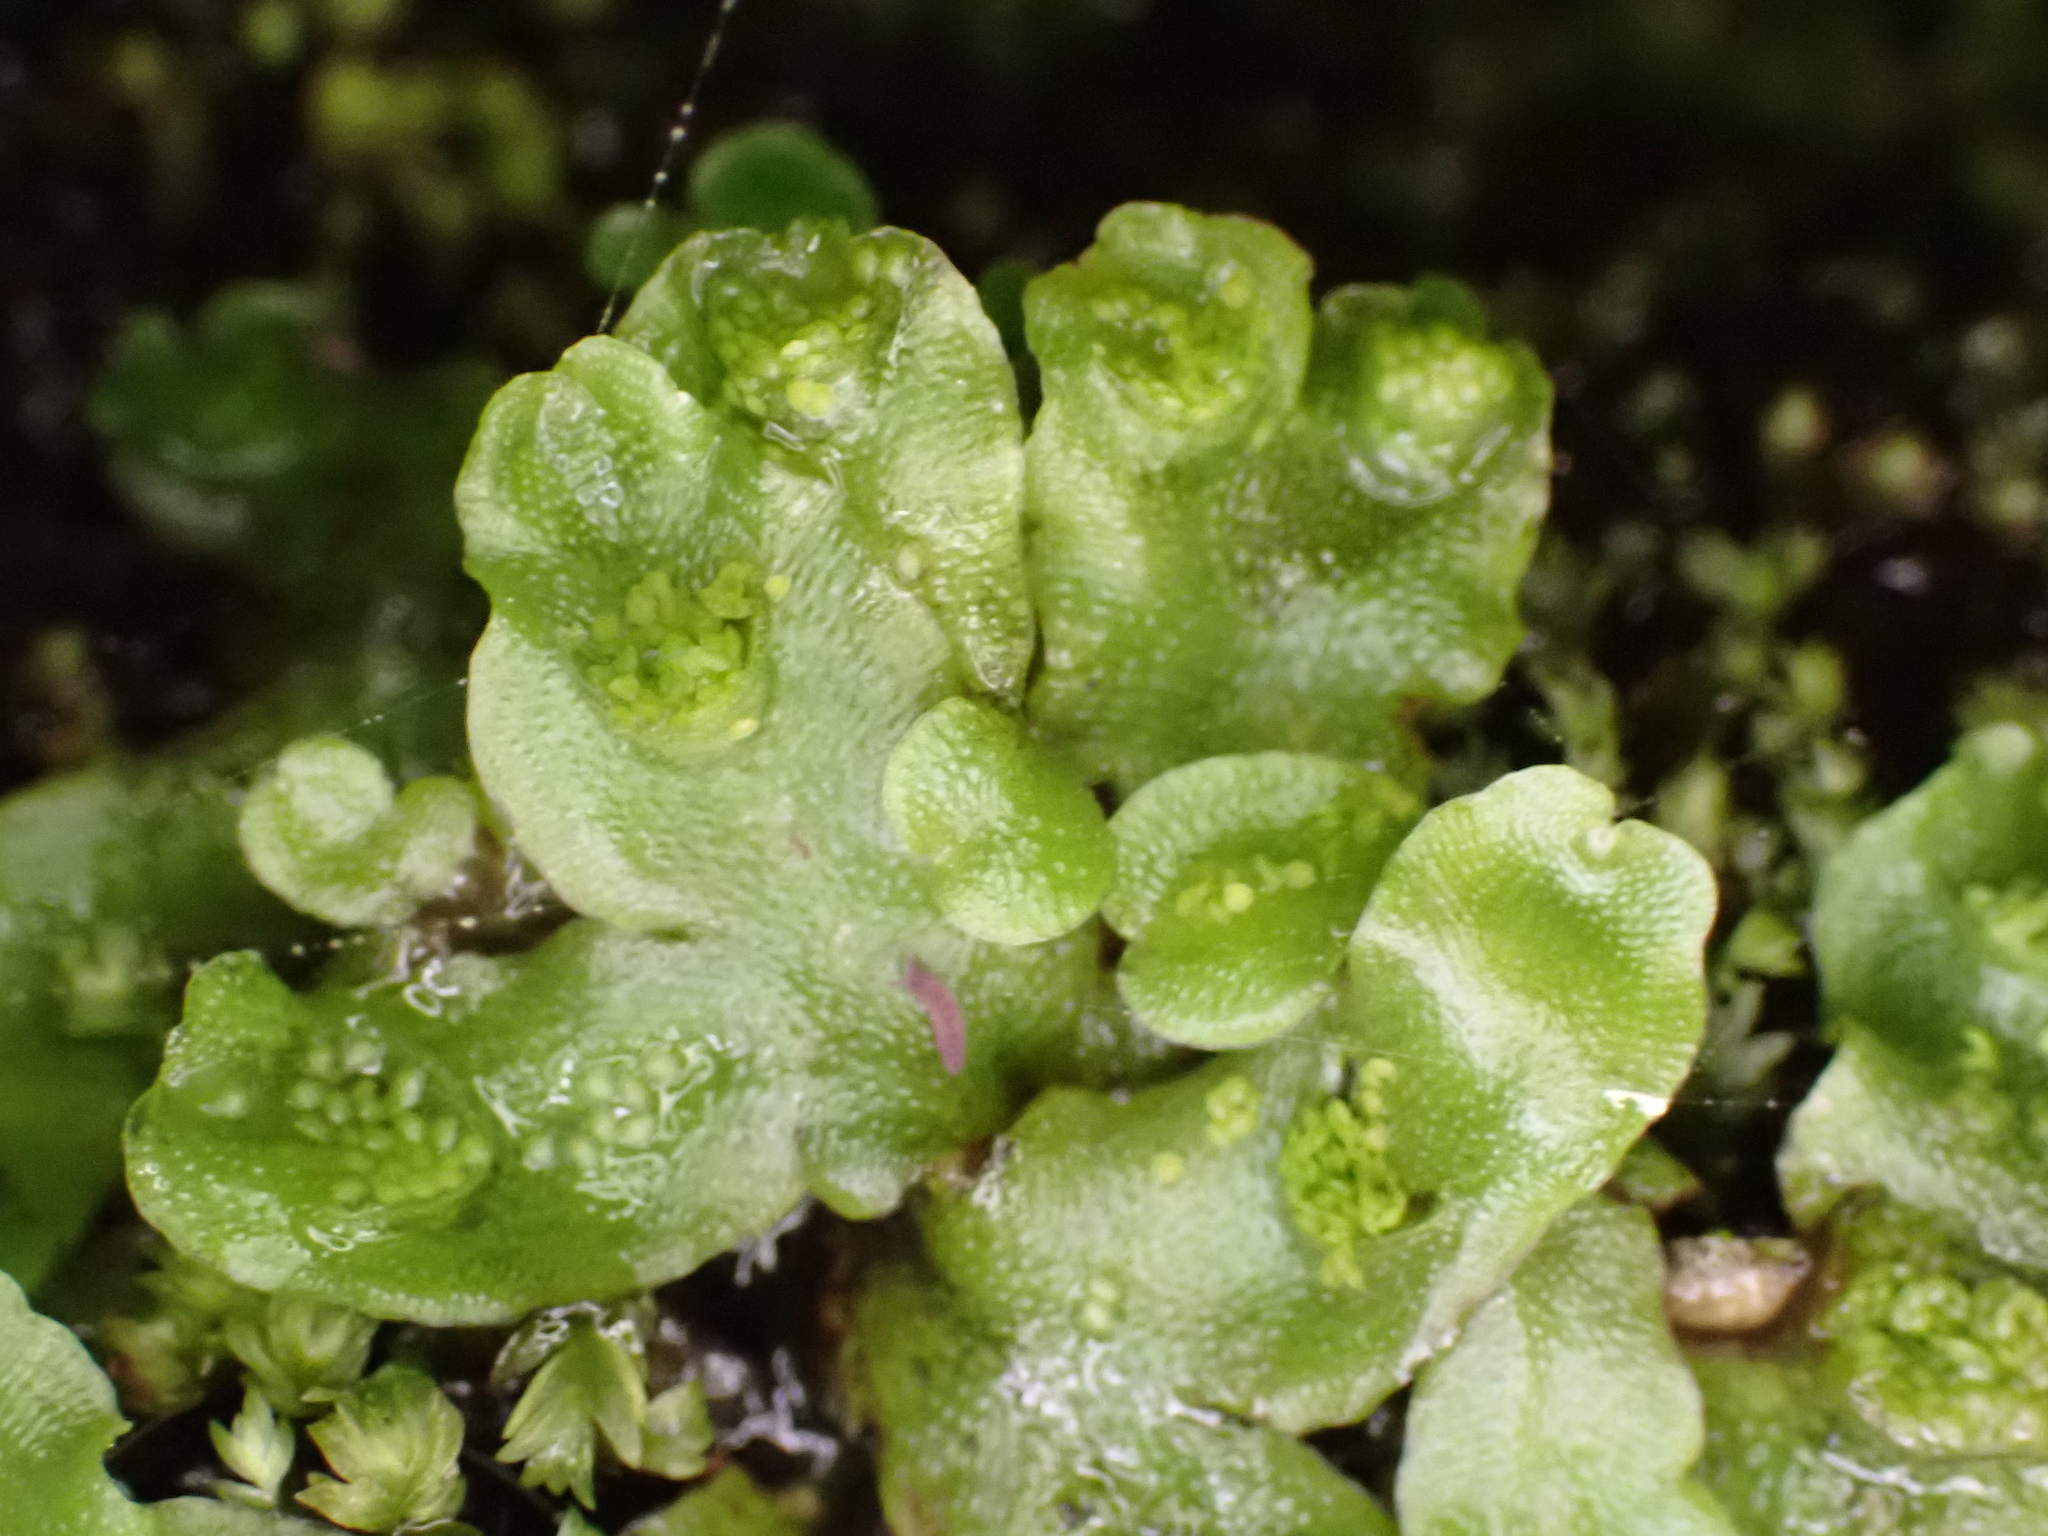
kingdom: Plantae
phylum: Marchantiophyta
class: Marchantiopsida
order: Lunulariales
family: Lunulariaceae
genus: Lunularia
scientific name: Lunularia cruciata
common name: Crescent-cup liverwort
